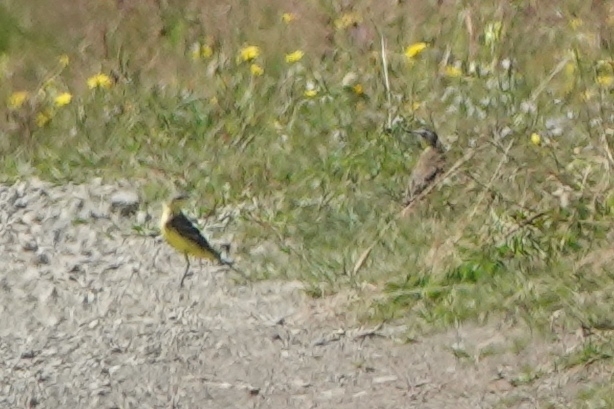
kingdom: Animalia
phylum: Chordata
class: Aves
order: Passeriformes
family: Motacillidae
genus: Motacilla
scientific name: Motacilla tschutschensis
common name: Eastern yellow wagtail
